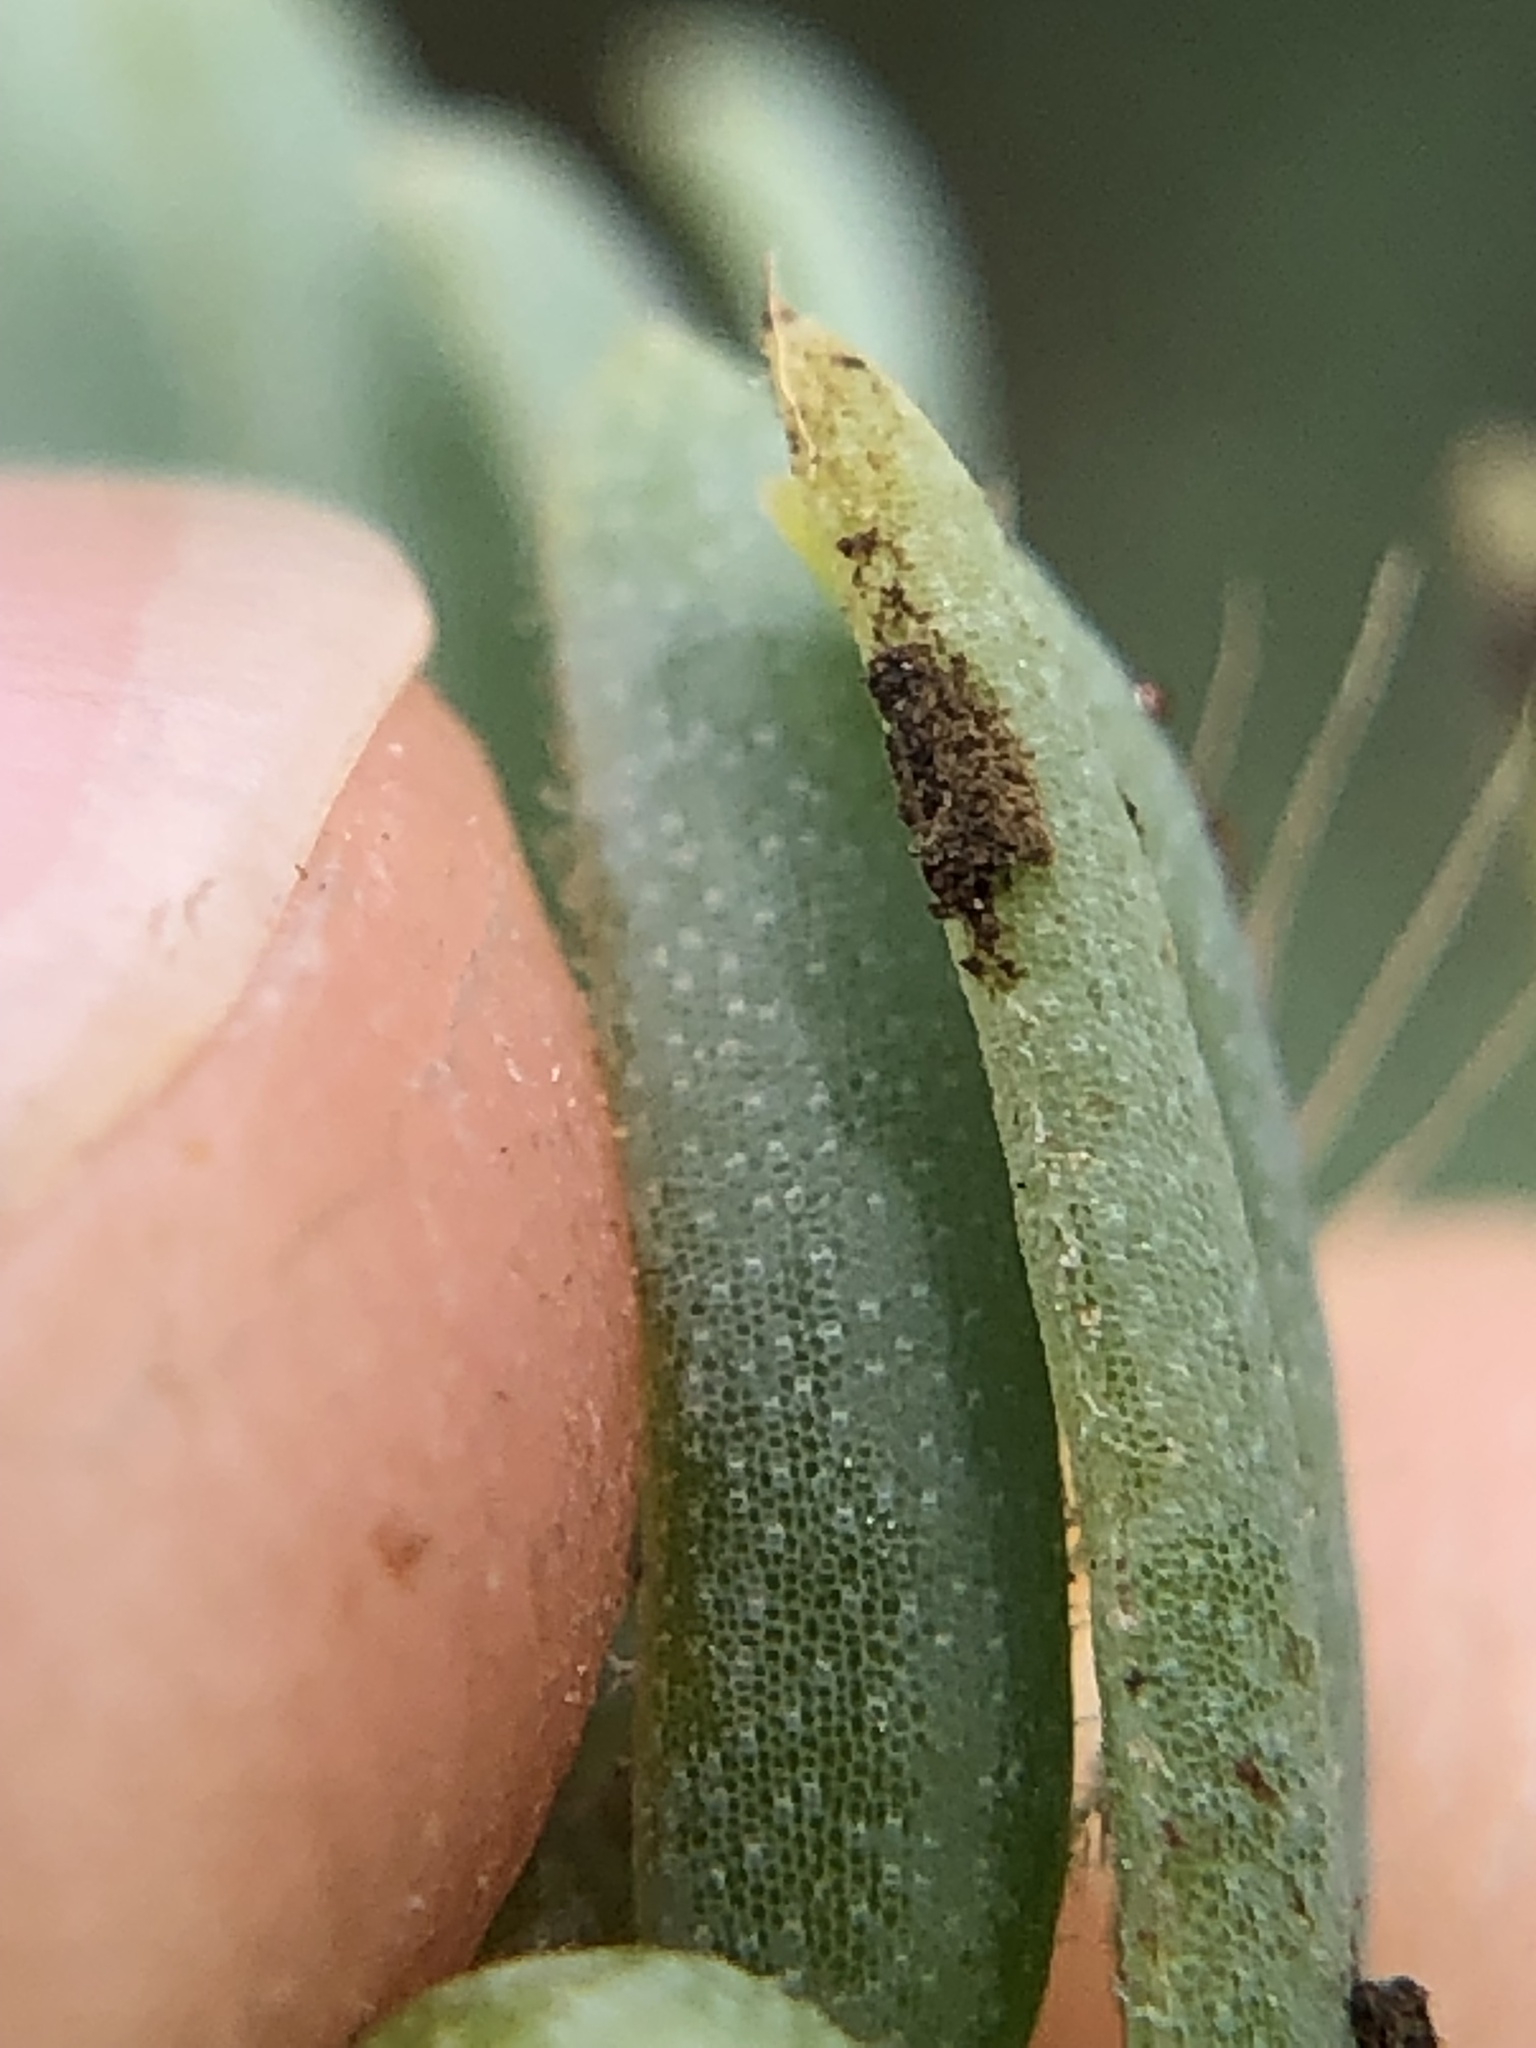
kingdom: Fungi
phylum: Basidiomycota
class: Pucciniomycetes
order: Pucciniales
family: Pucciniaceae
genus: Uromyces
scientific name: Uromyces rebeccae
